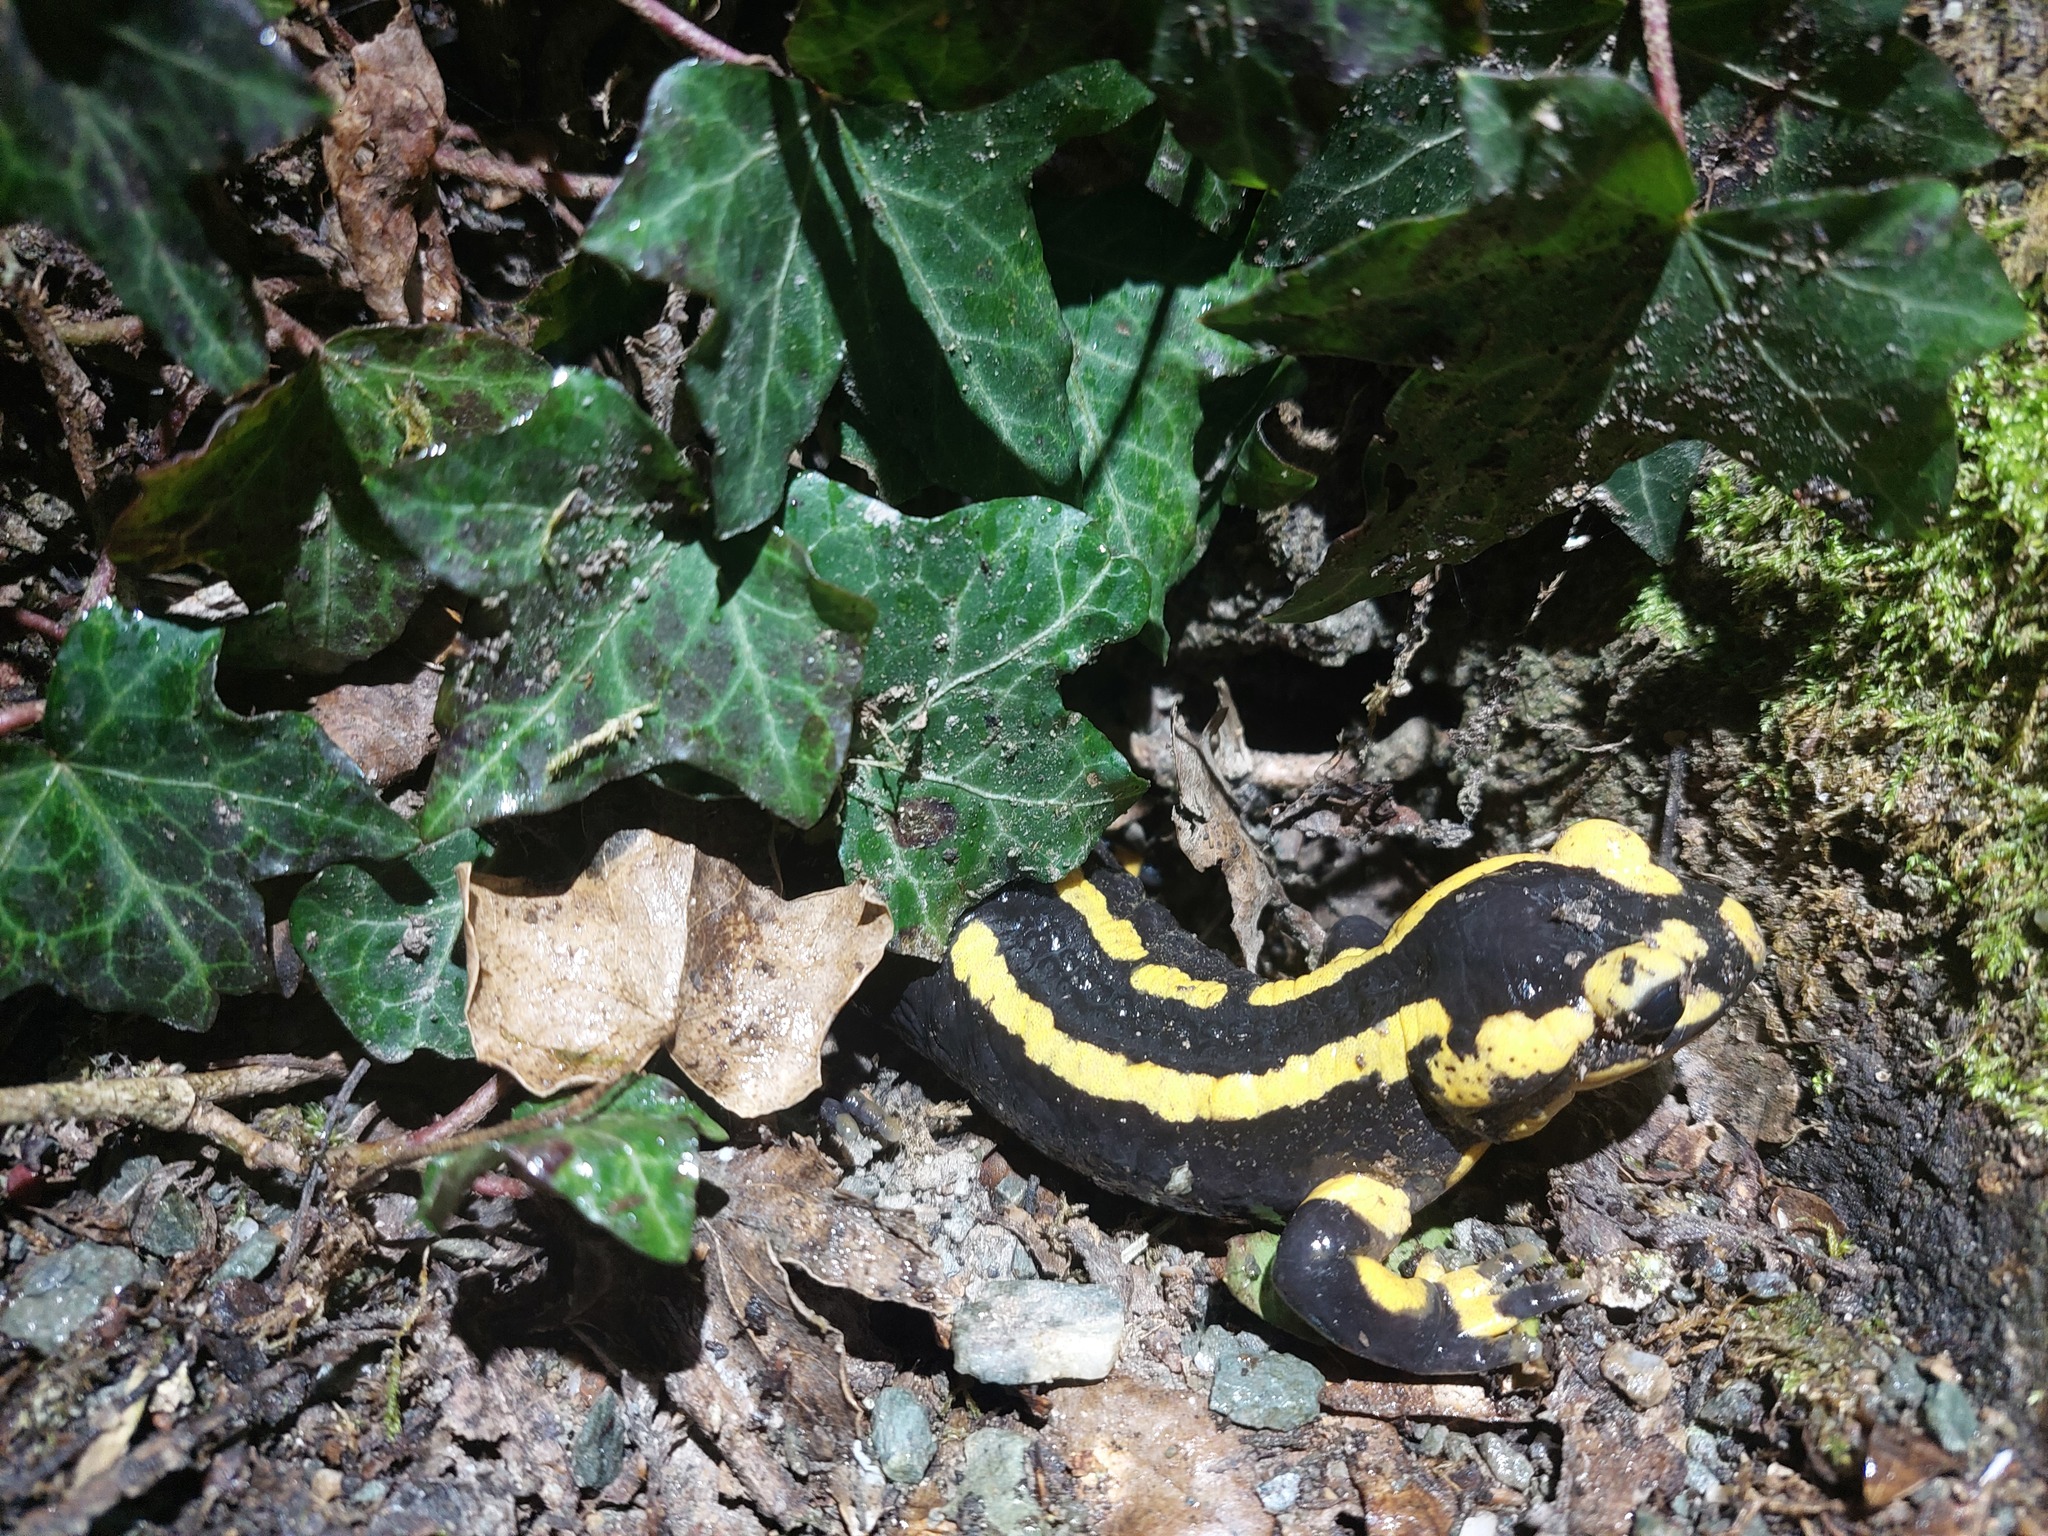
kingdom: Animalia
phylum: Chordata
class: Amphibia
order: Caudata
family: Salamandridae
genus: Salamandra
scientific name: Salamandra salamandra
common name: Fire salamander
